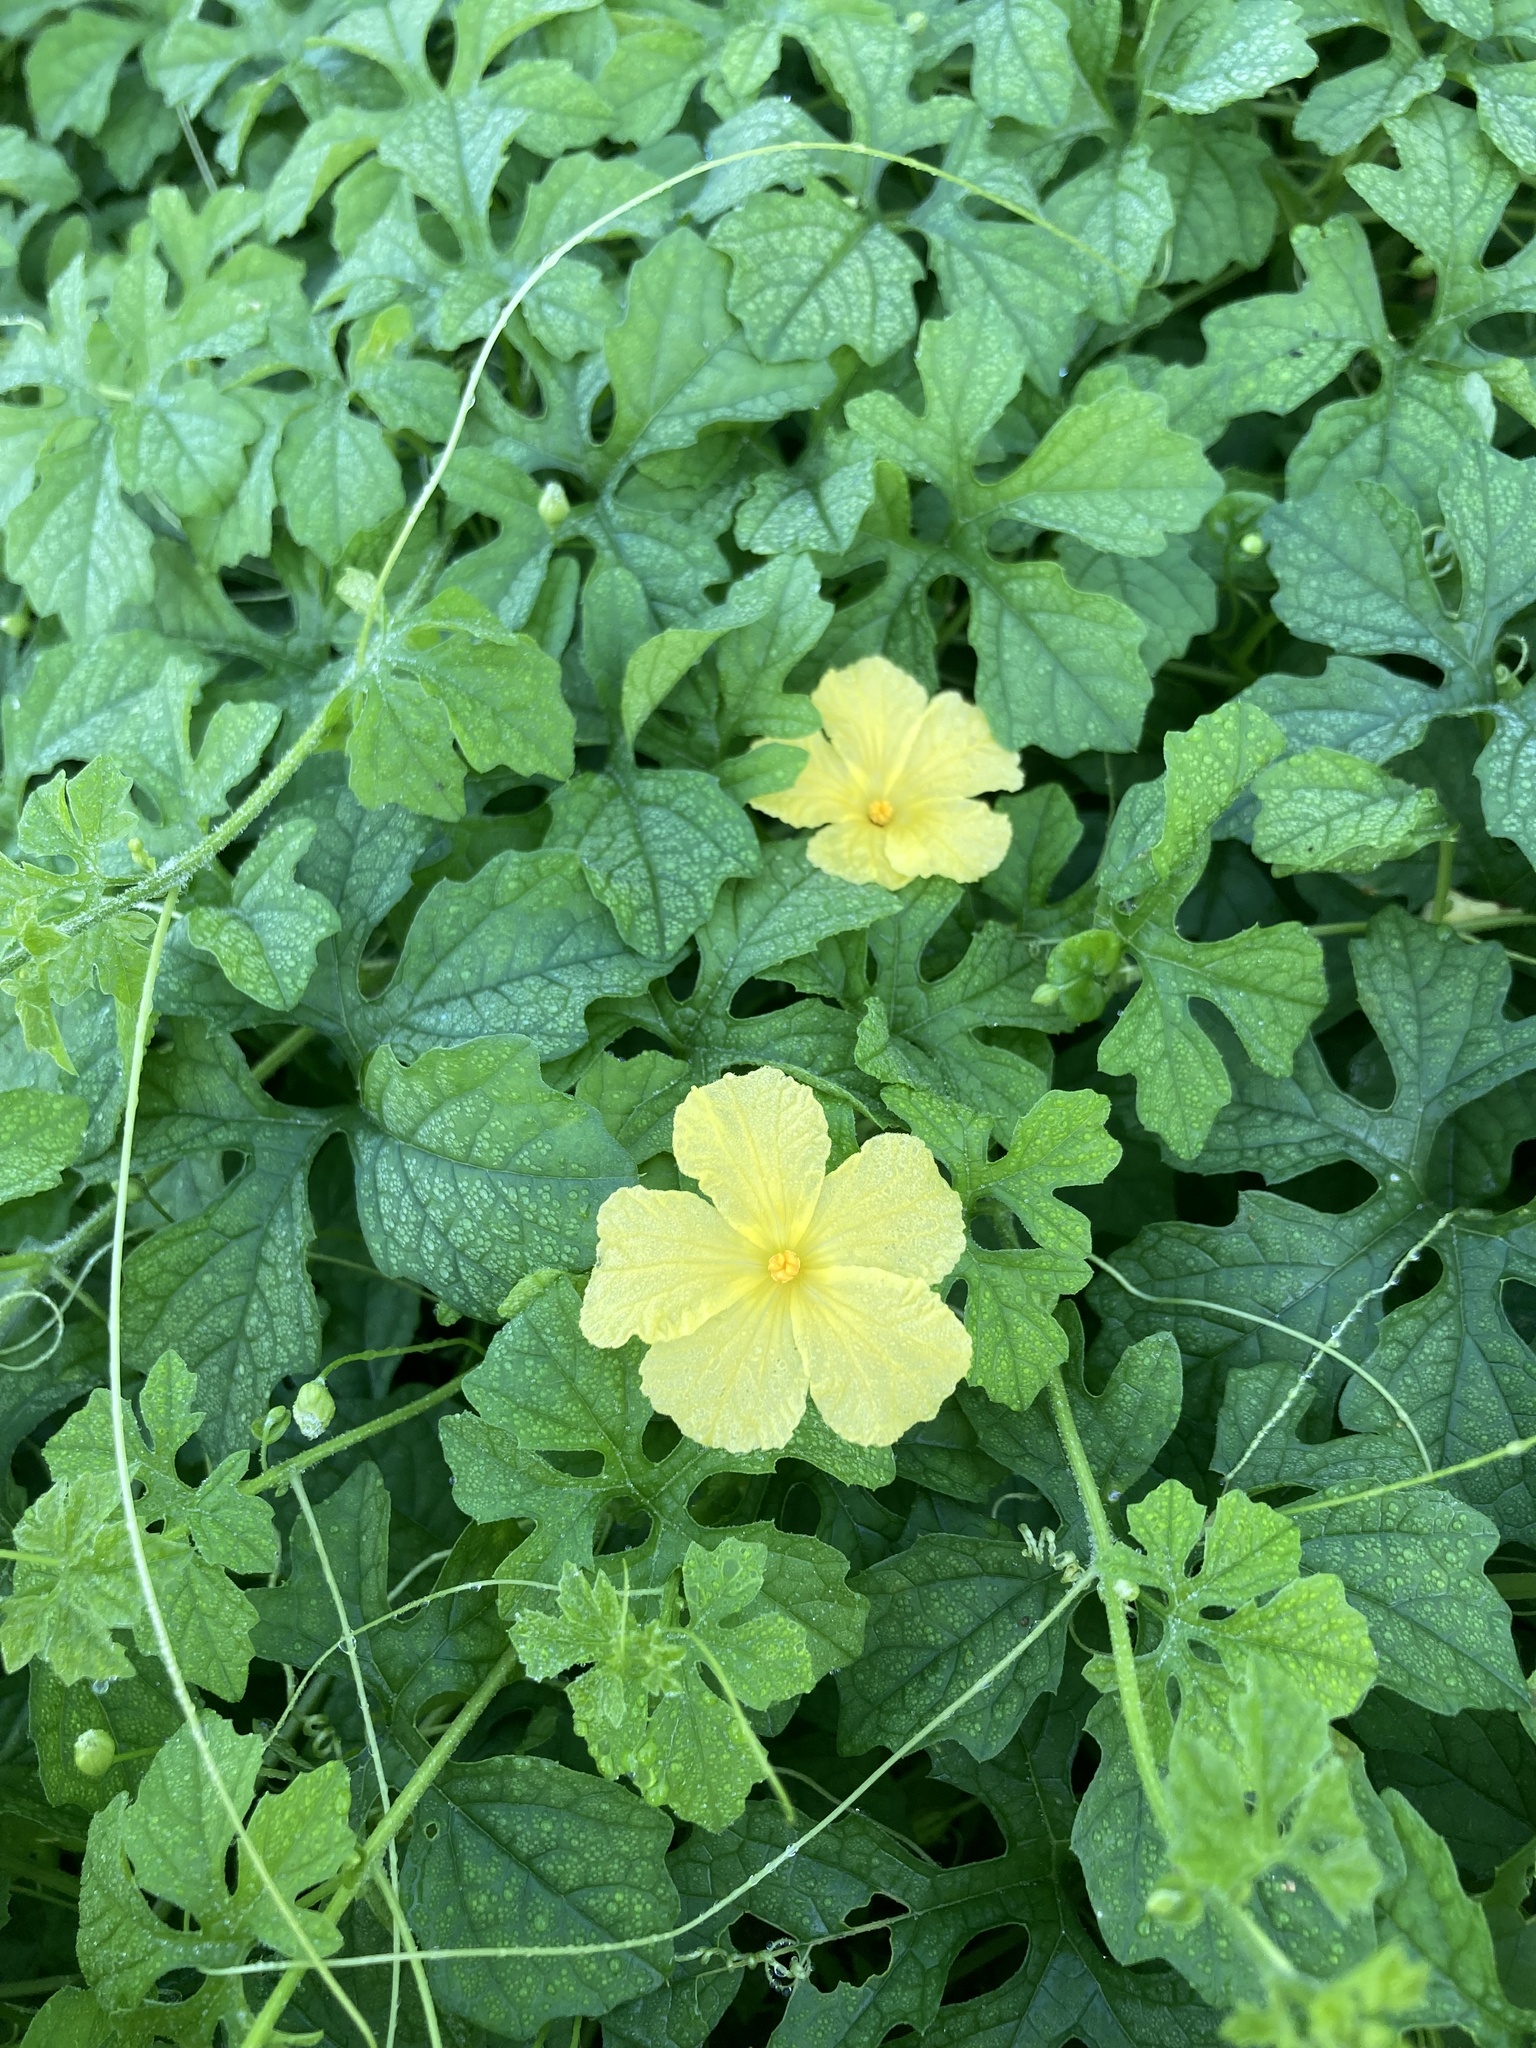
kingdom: Plantae
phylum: Tracheophyta
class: Magnoliopsida
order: Cucurbitales
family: Cucurbitaceae
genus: Momordica
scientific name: Momordica charantia
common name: Balsampear
